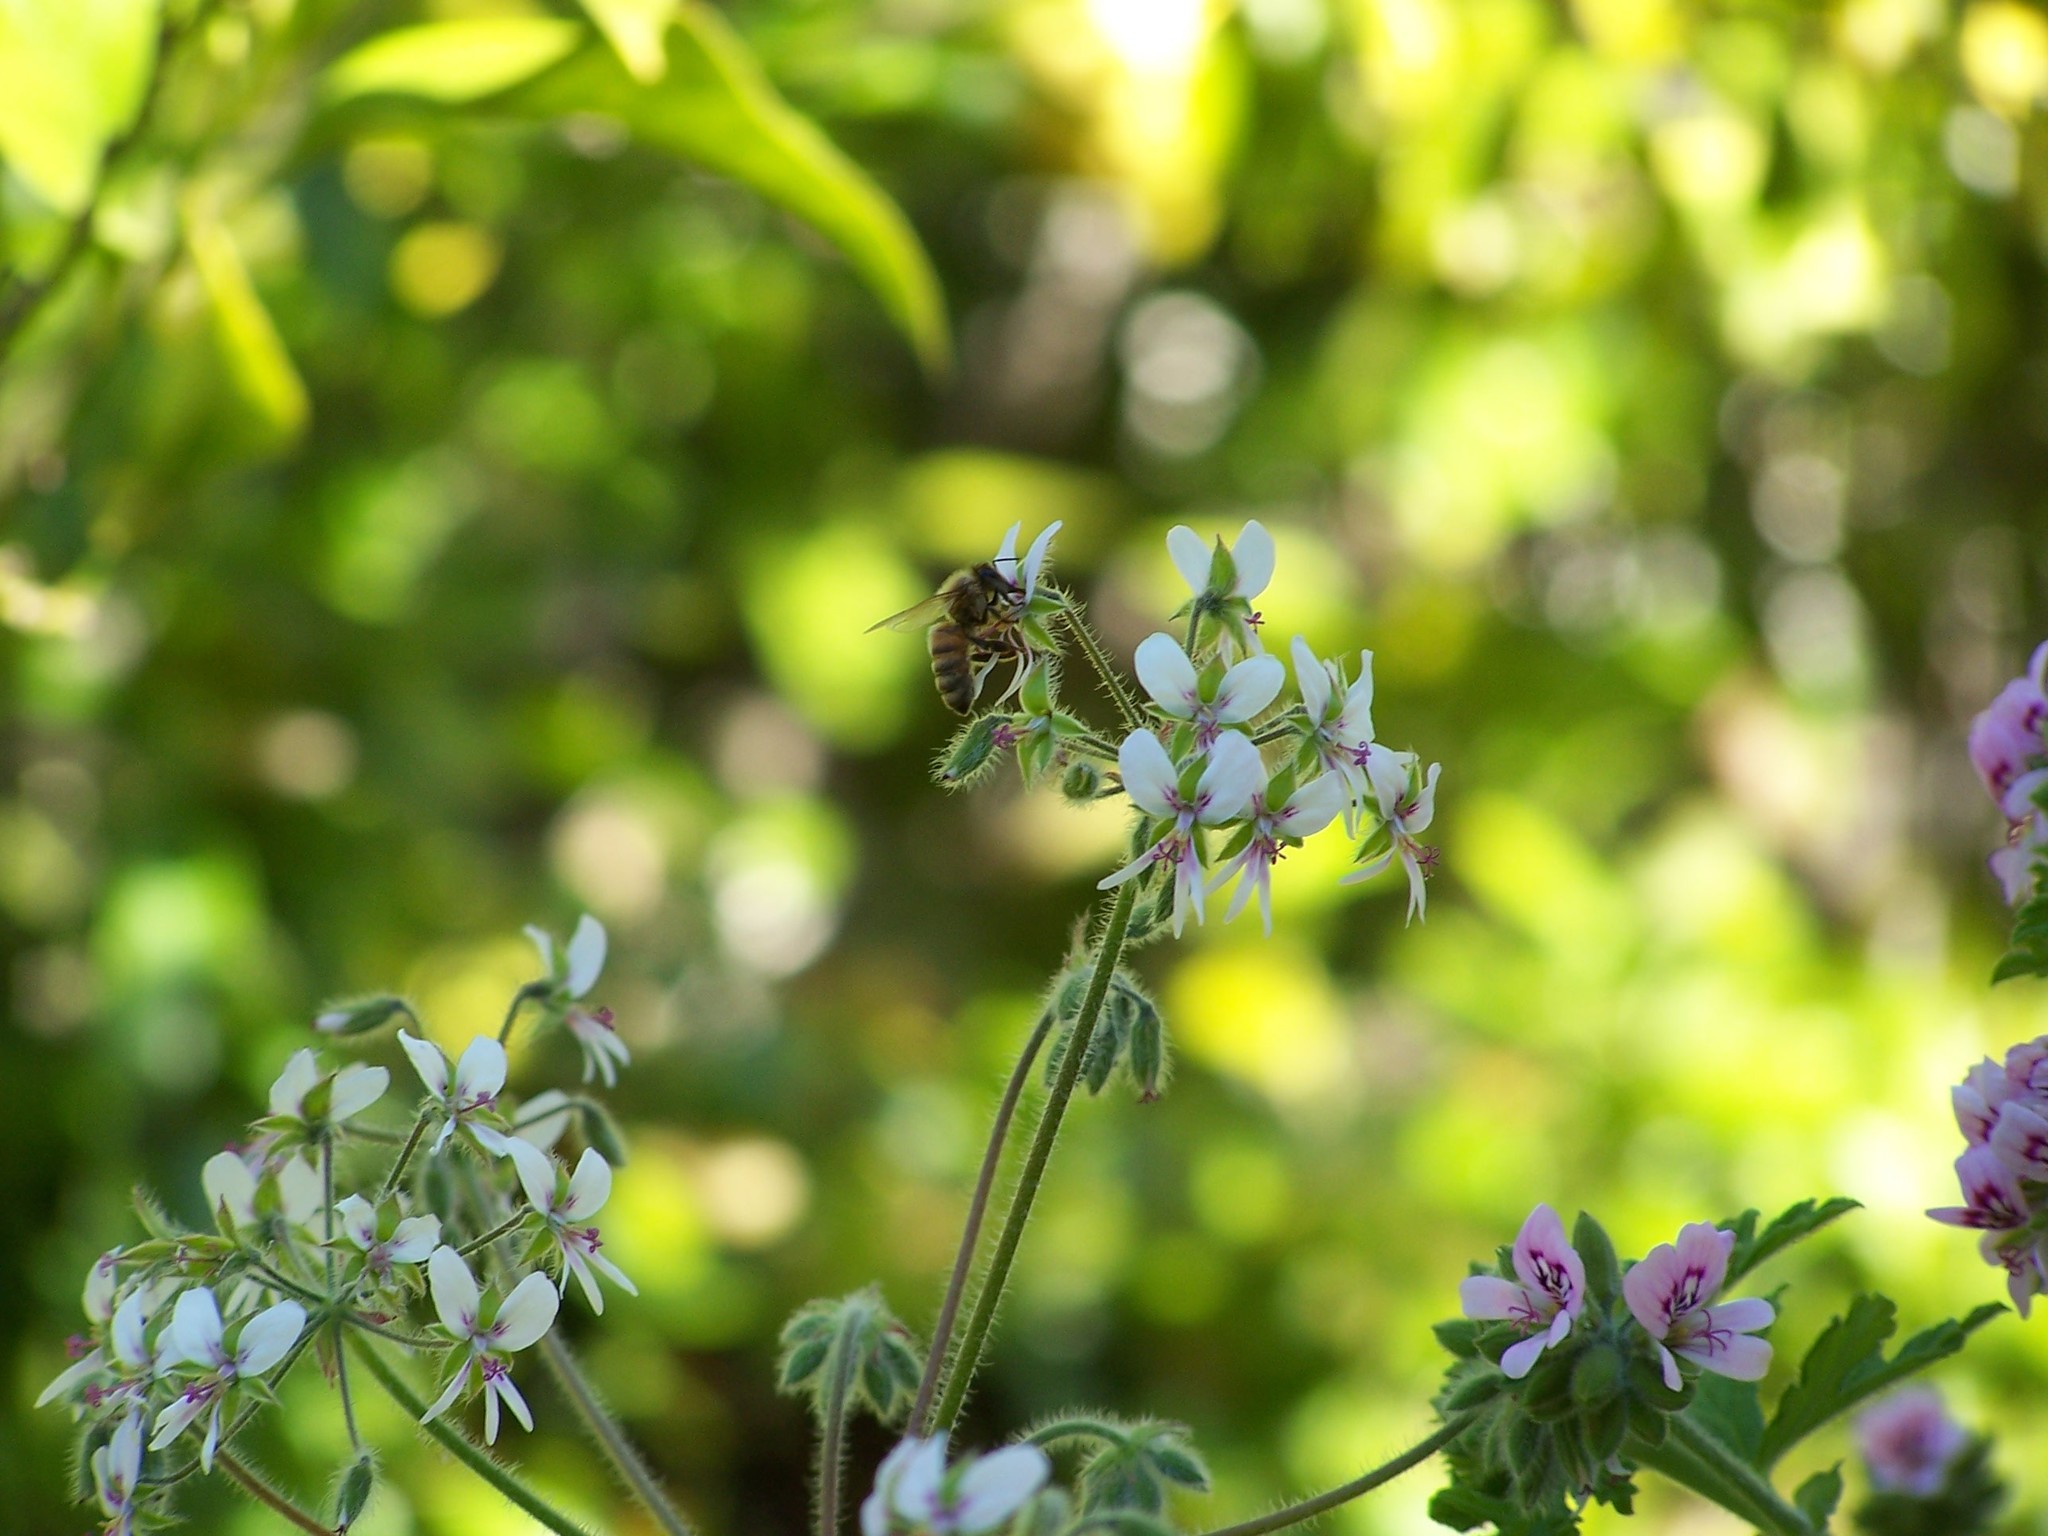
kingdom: Animalia
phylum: Arthropoda
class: Insecta
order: Hymenoptera
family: Apidae
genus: Apis
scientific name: Apis mellifera
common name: Honey bee
